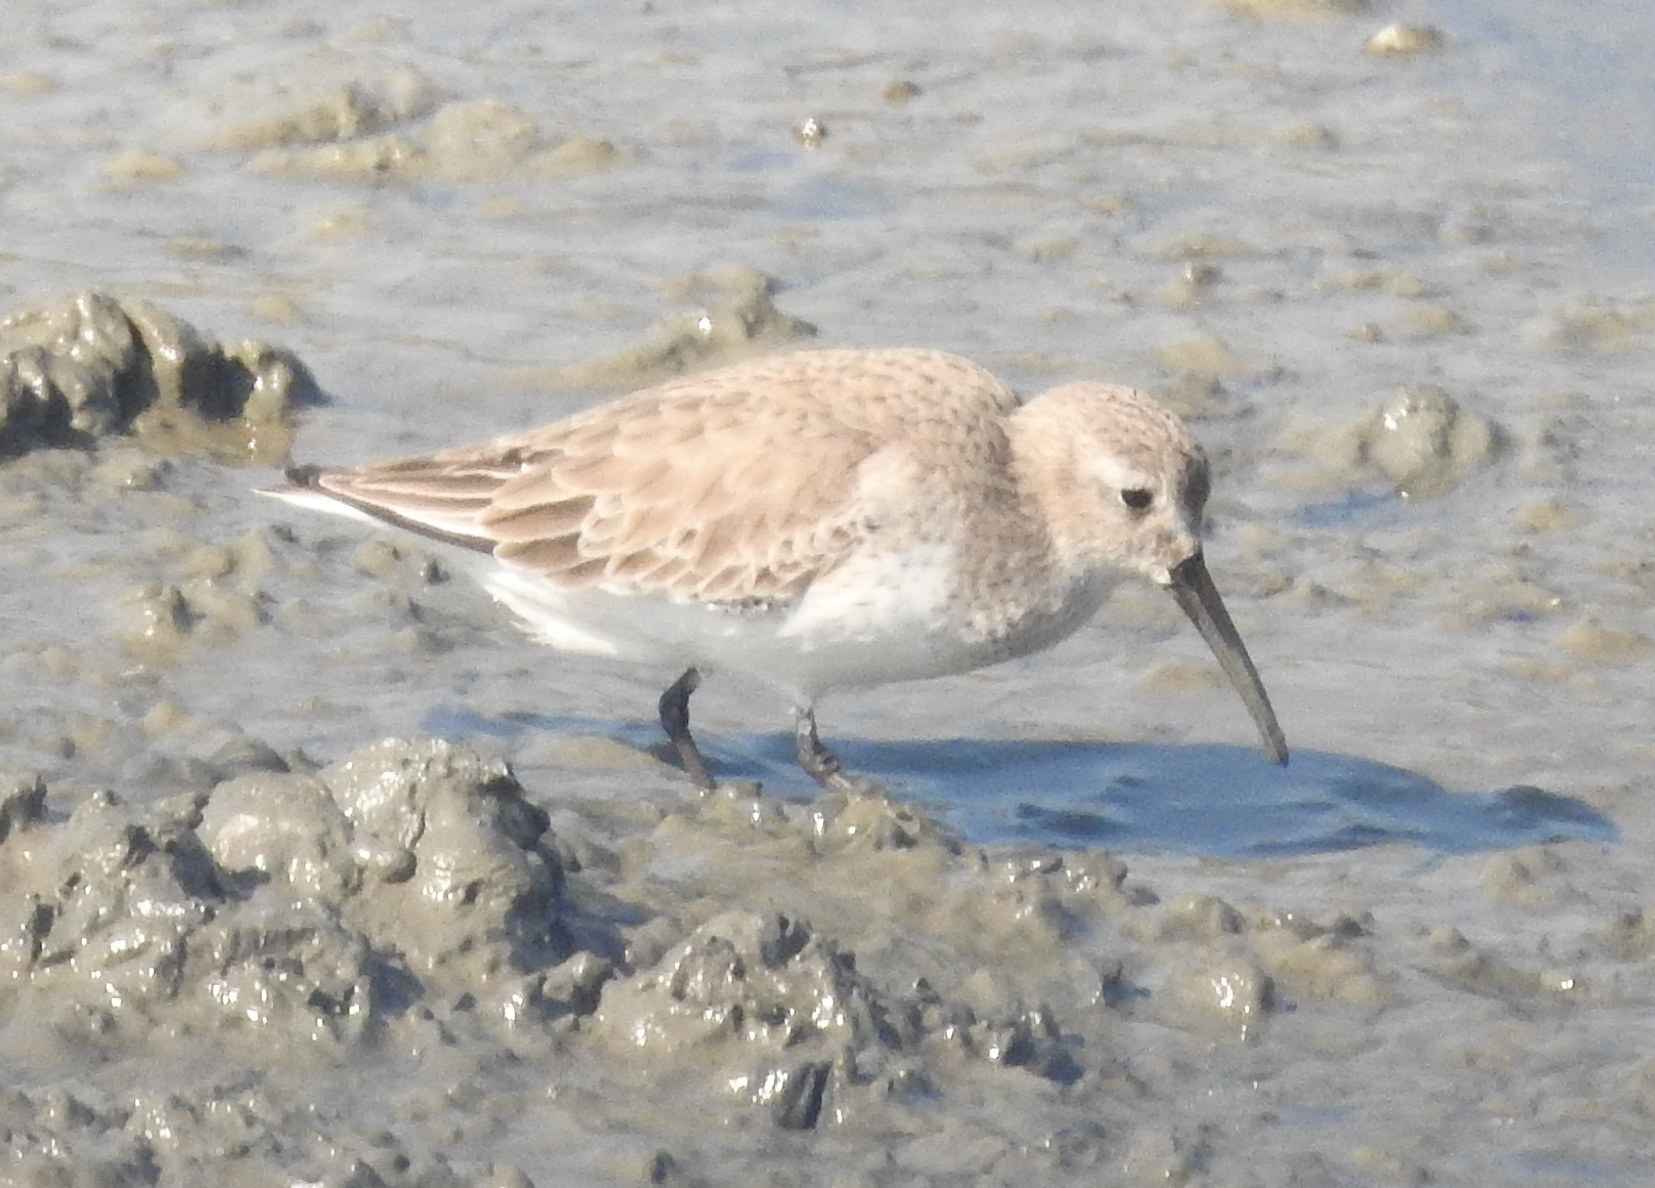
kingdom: Animalia
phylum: Chordata
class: Aves
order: Charadriiformes
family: Scolopacidae
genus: Calidris
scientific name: Calidris alpina
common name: Dunlin
